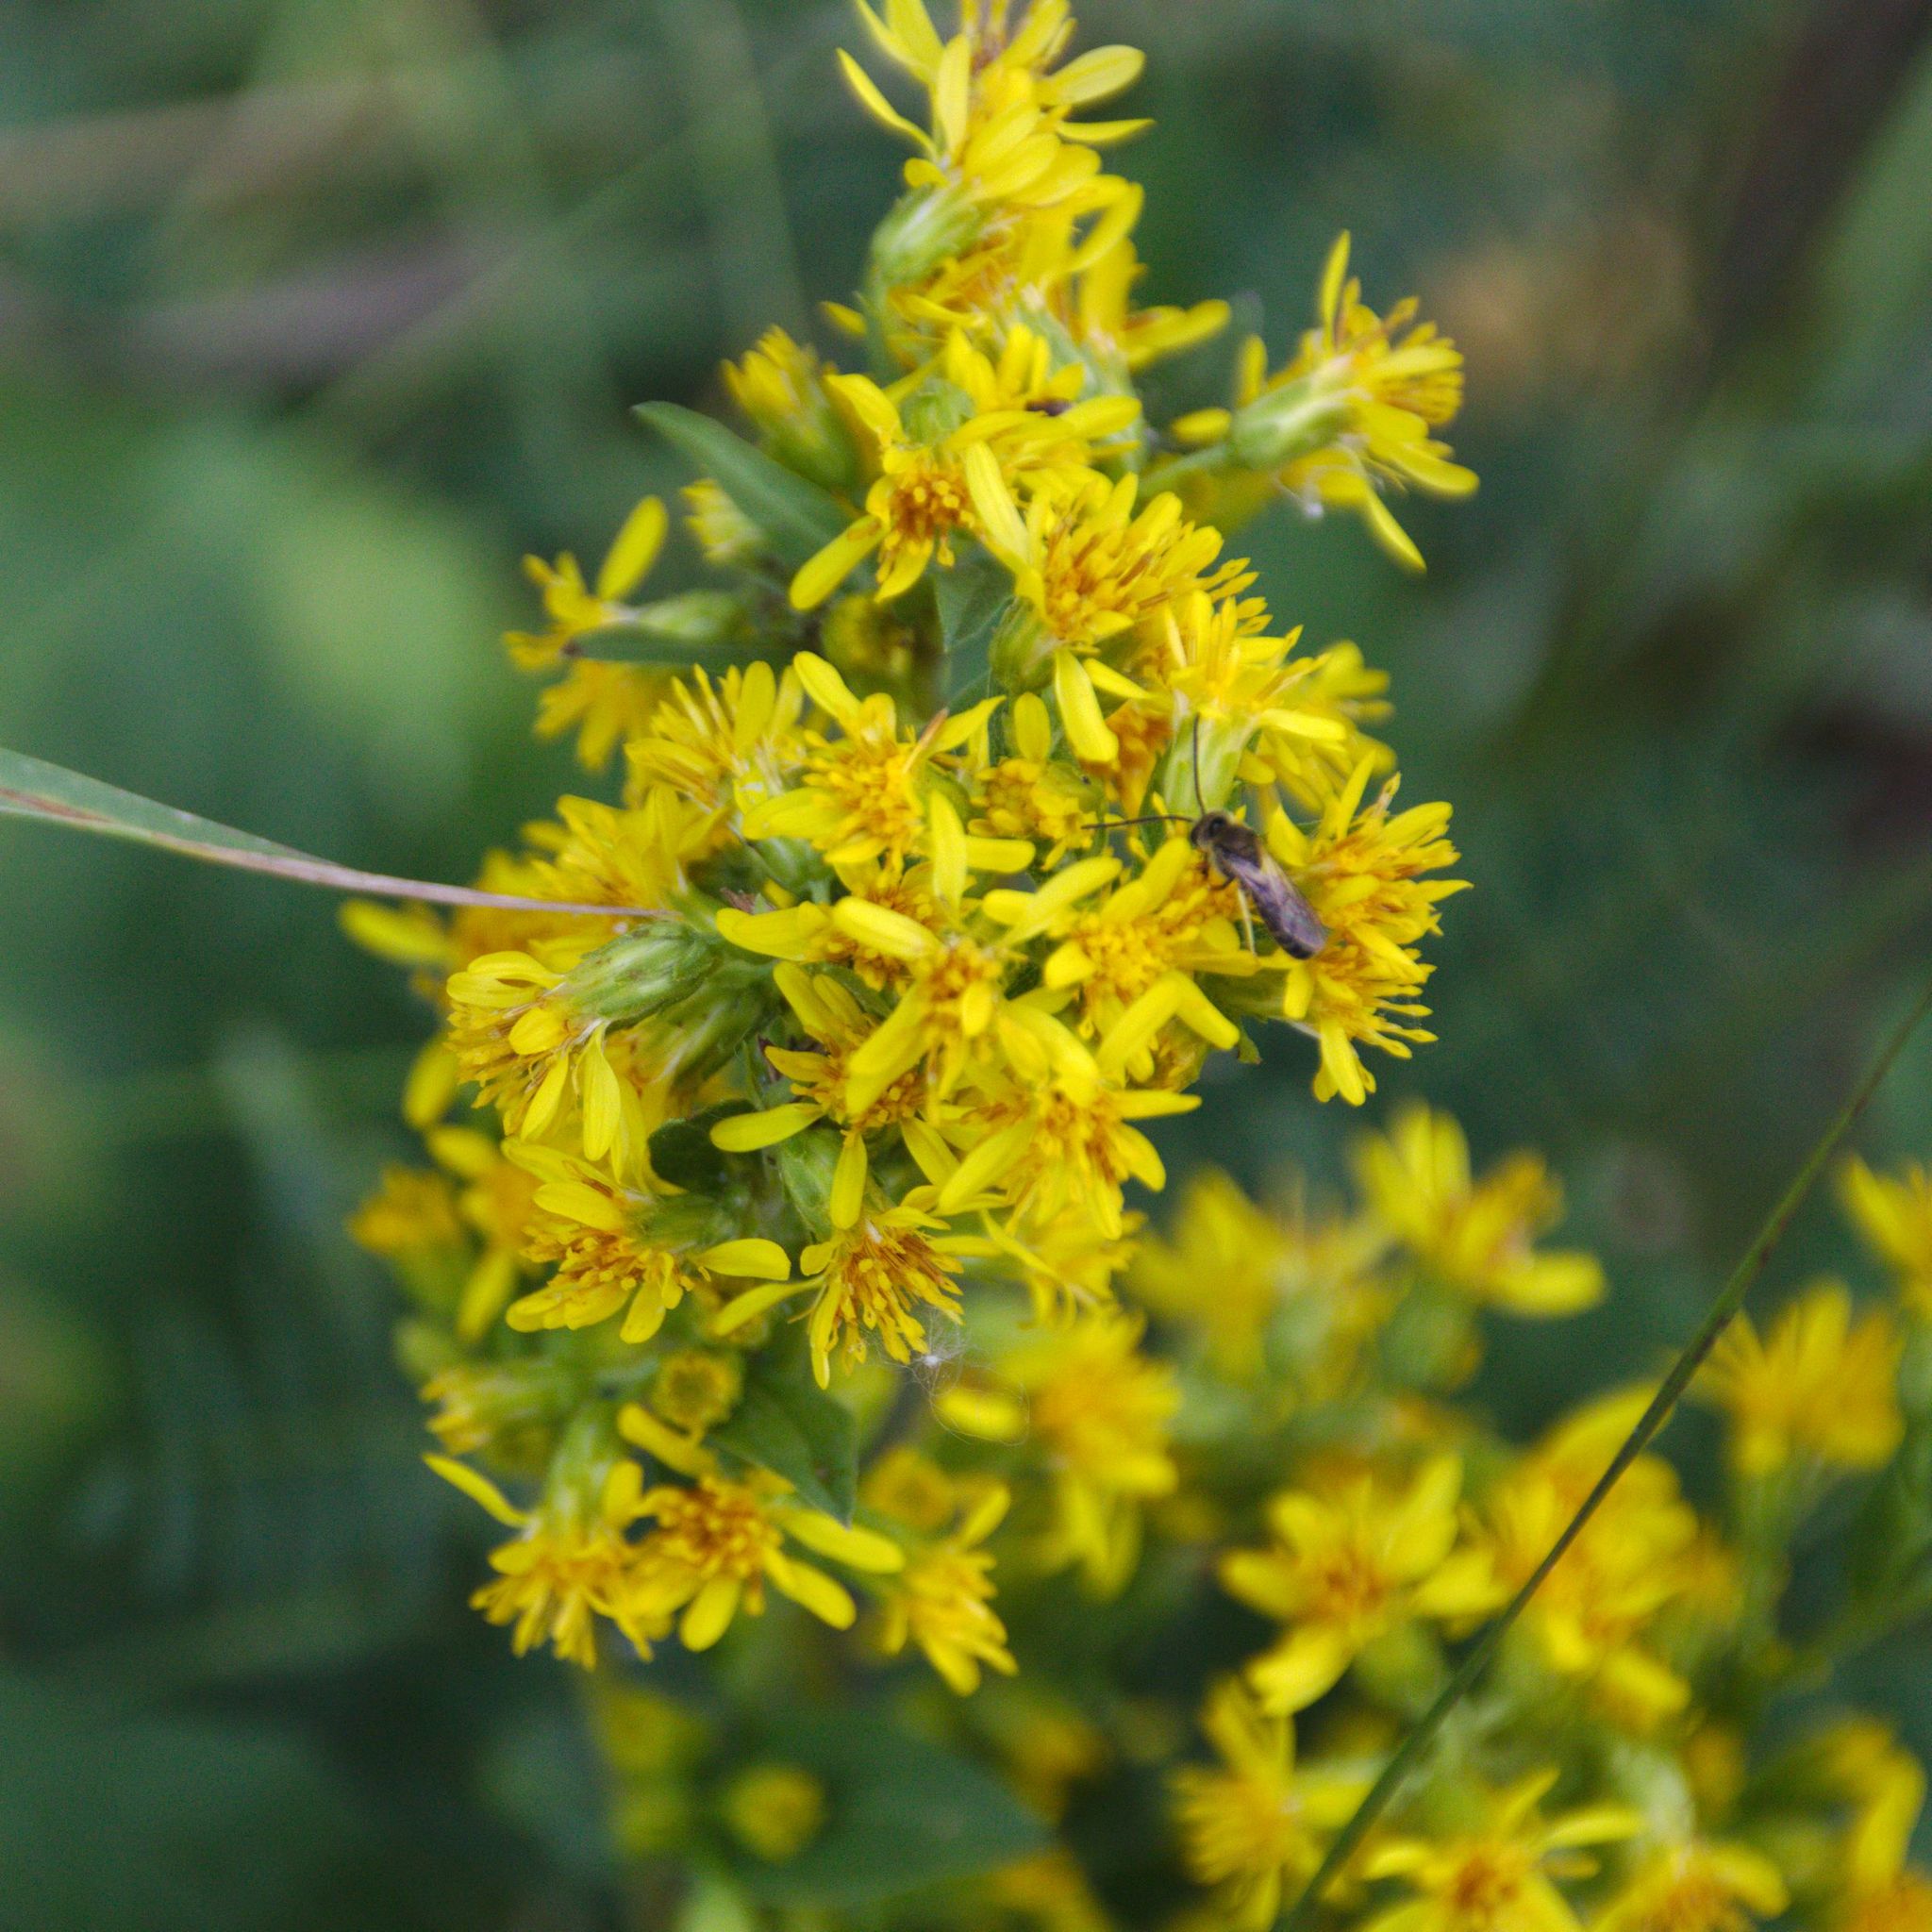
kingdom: Plantae
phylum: Tracheophyta
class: Magnoliopsida
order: Asterales
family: Asteraceae
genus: Solidago
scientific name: Solidago virgaurea
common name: Goldenrod
